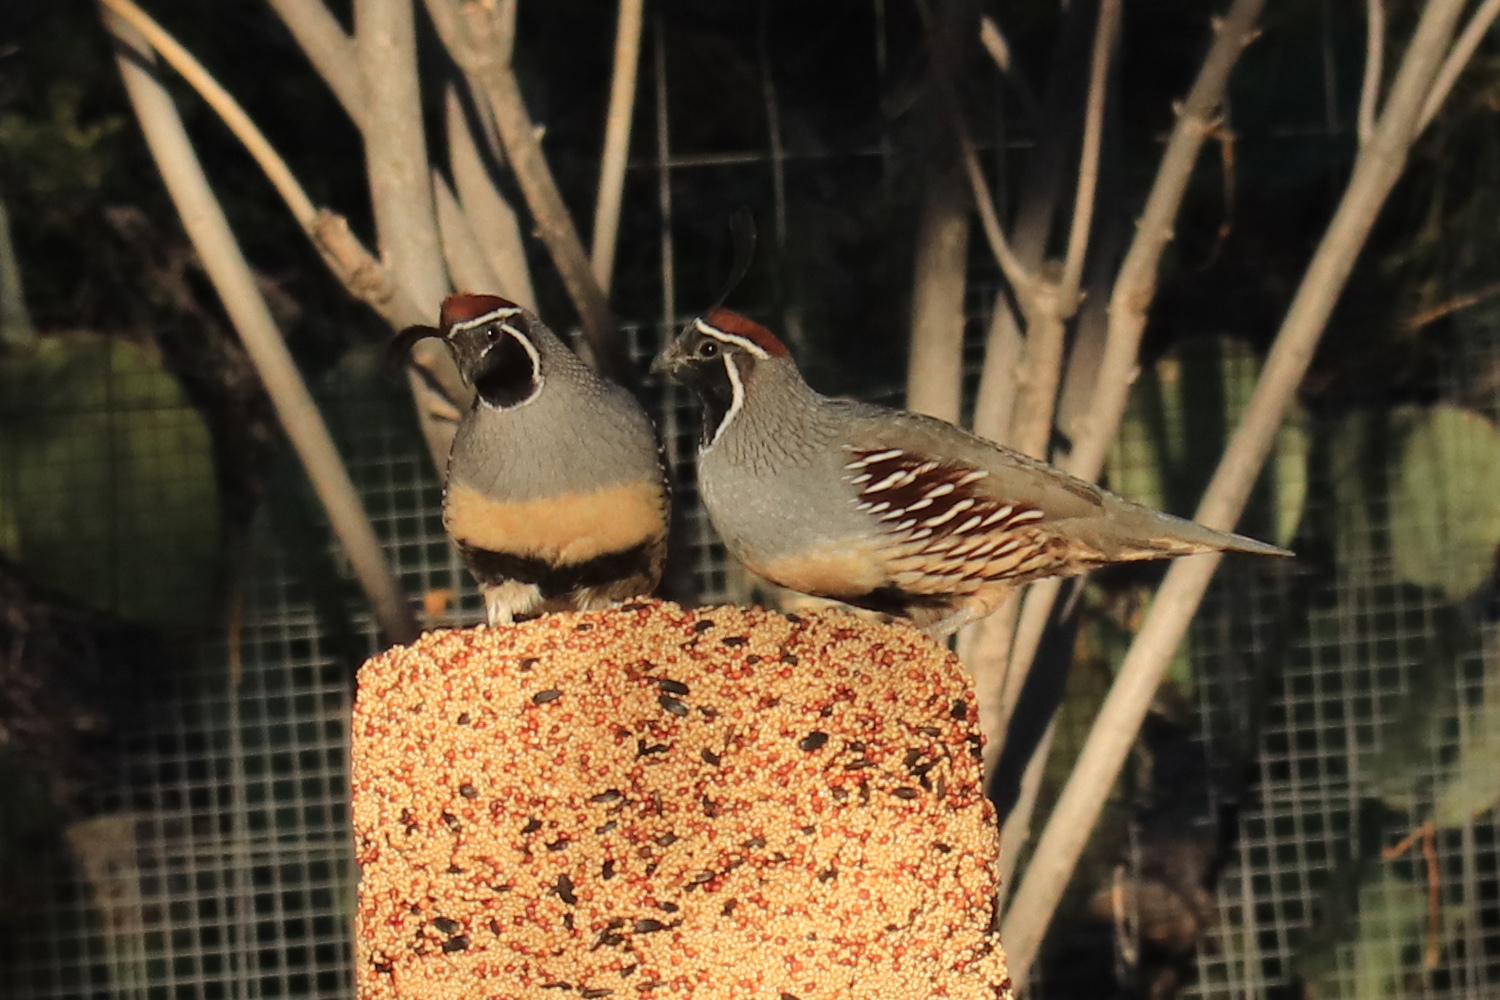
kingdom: Animalia
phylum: Chordata
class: Aves
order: Galliformes
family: Odontophoridae
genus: Callipepla
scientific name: Callipepla gambelii
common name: Gambel's quail
